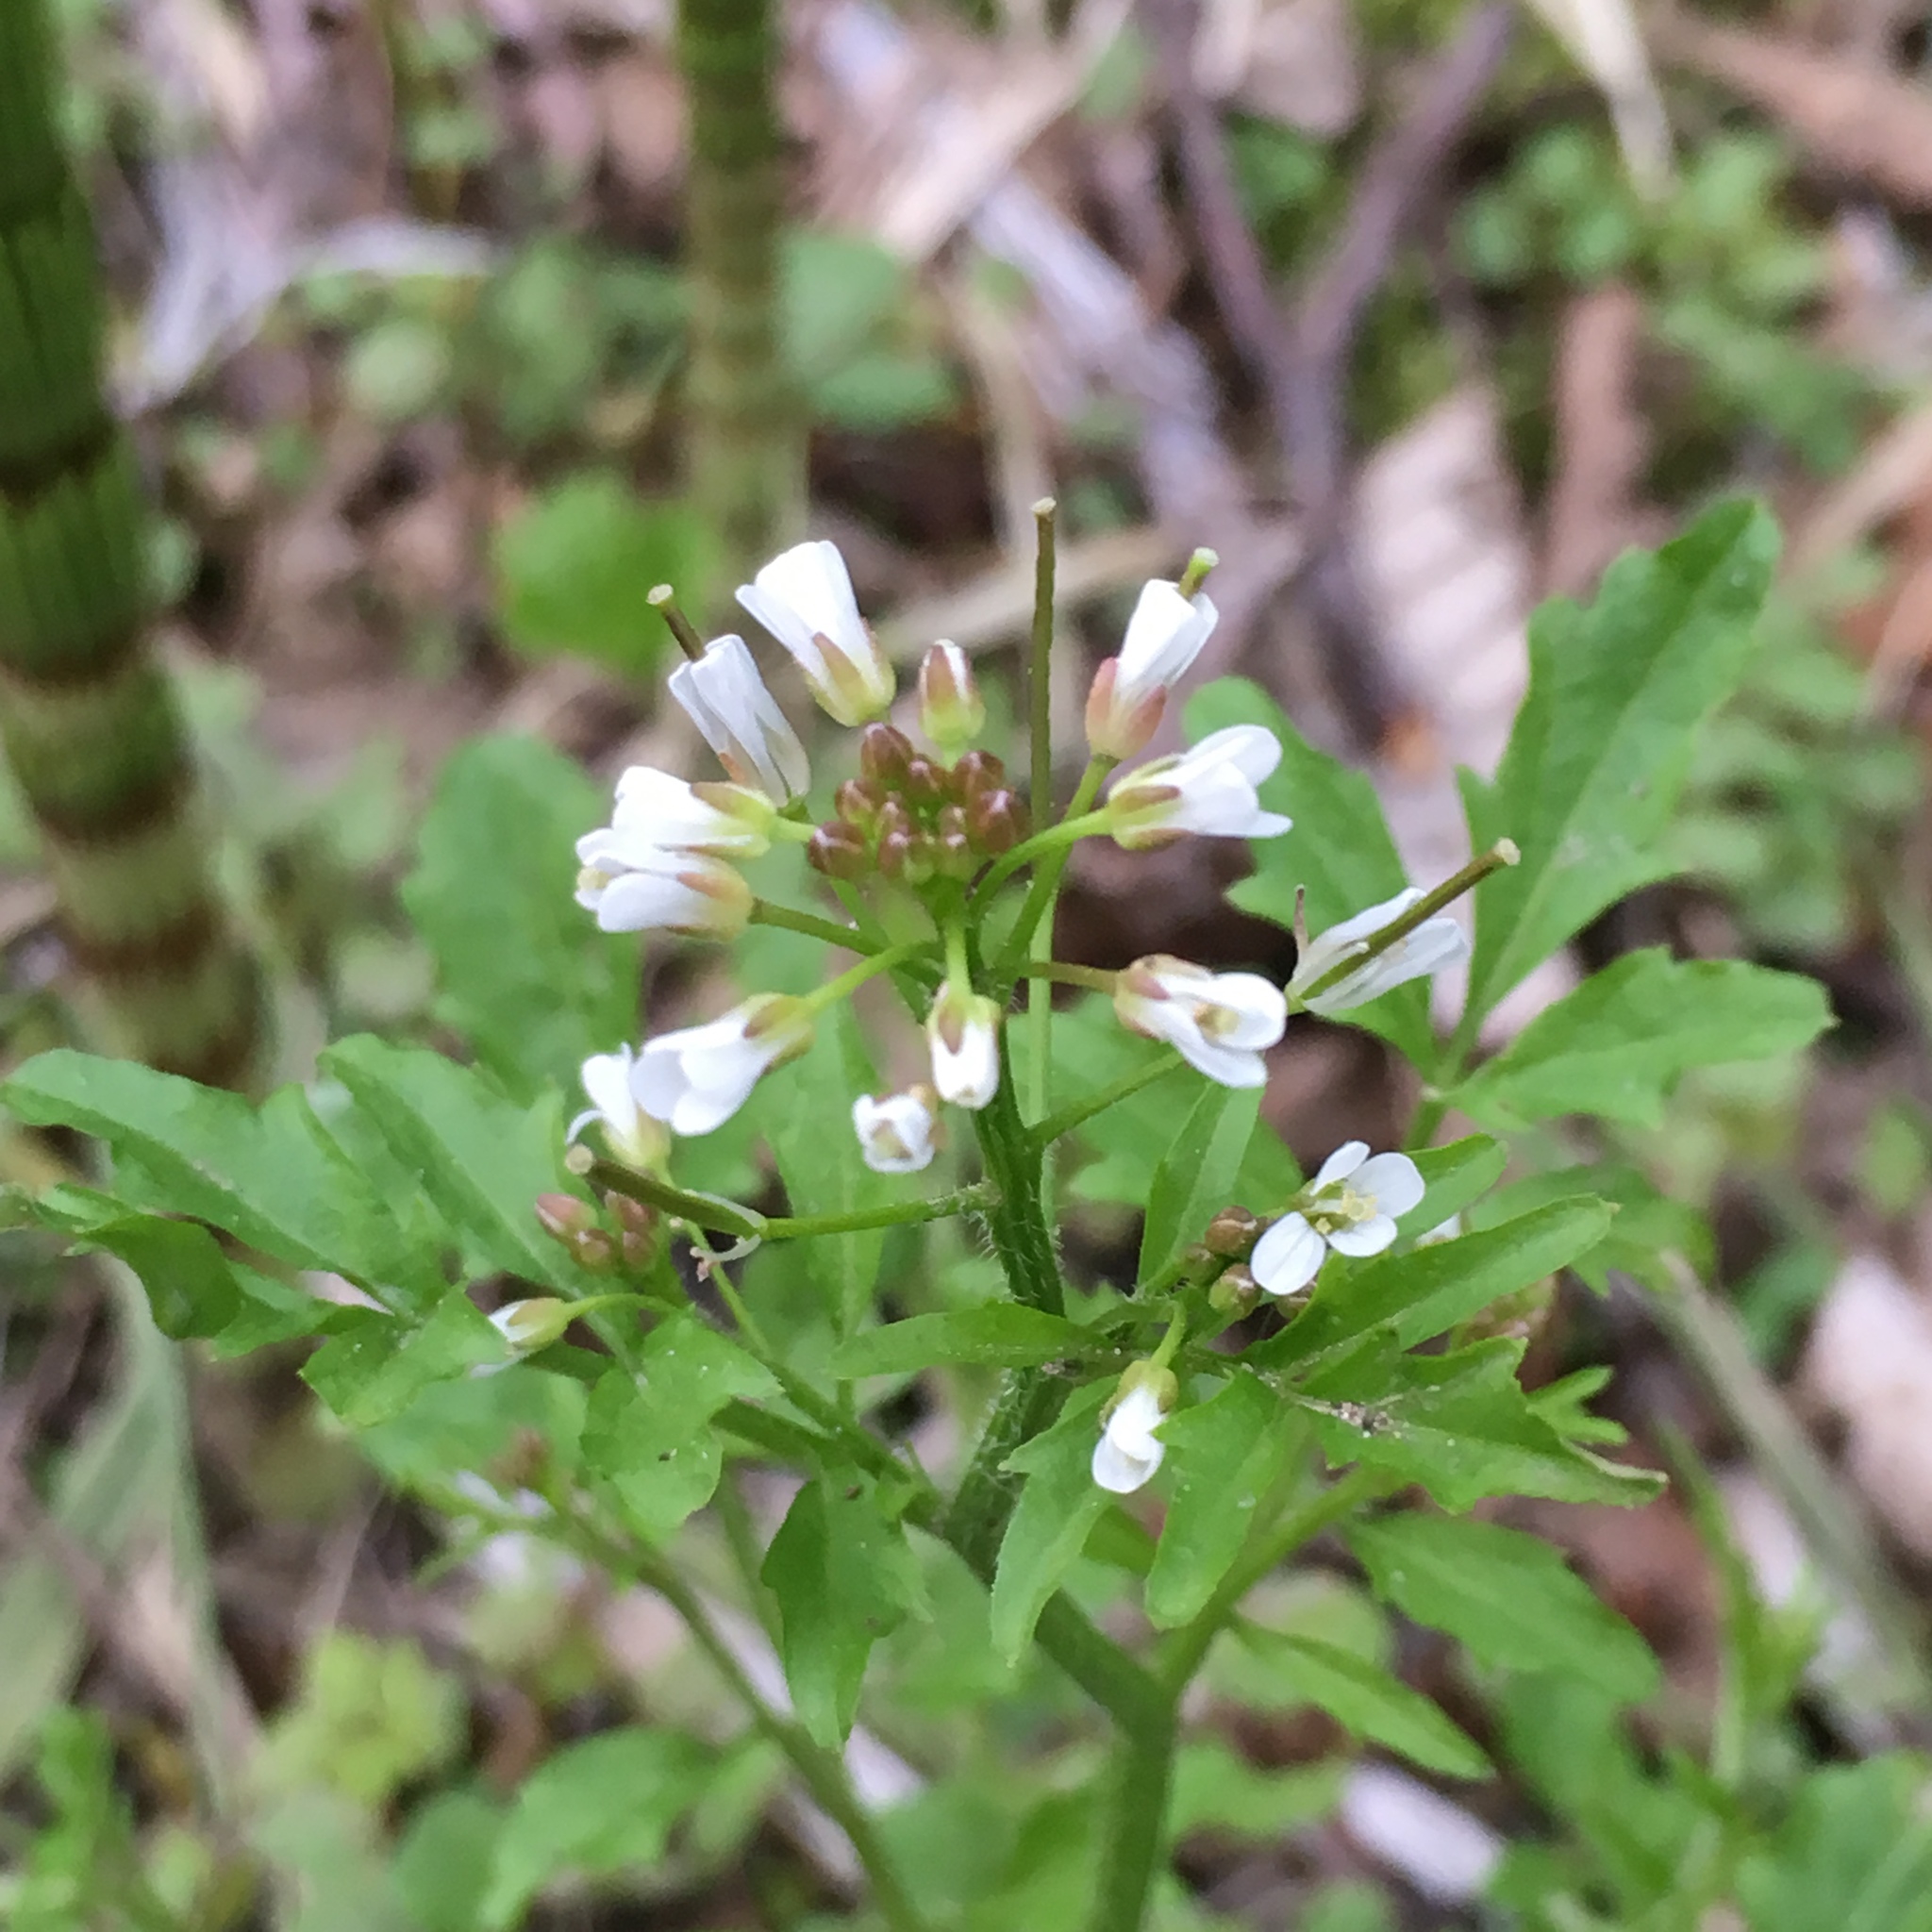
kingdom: Plantae
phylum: Tracheophyta
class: Magnoliopsida
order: Brassicales
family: Brassicaceae
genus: Cardamine
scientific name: Cardamine flexuosa
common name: Woodland bittercress
